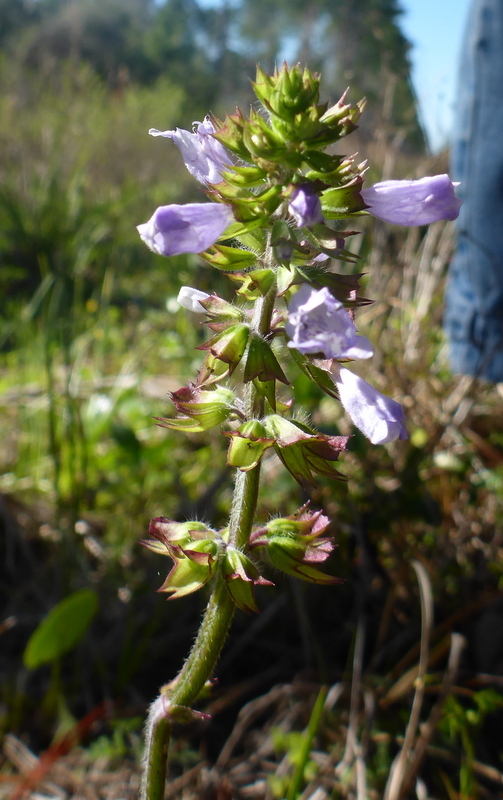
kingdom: Plantae
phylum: Tracheophyta
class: Magnoliopsida
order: Lamiales
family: Lamiaceae
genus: Salvia
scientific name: Salvia lyrata
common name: Cancerweed
